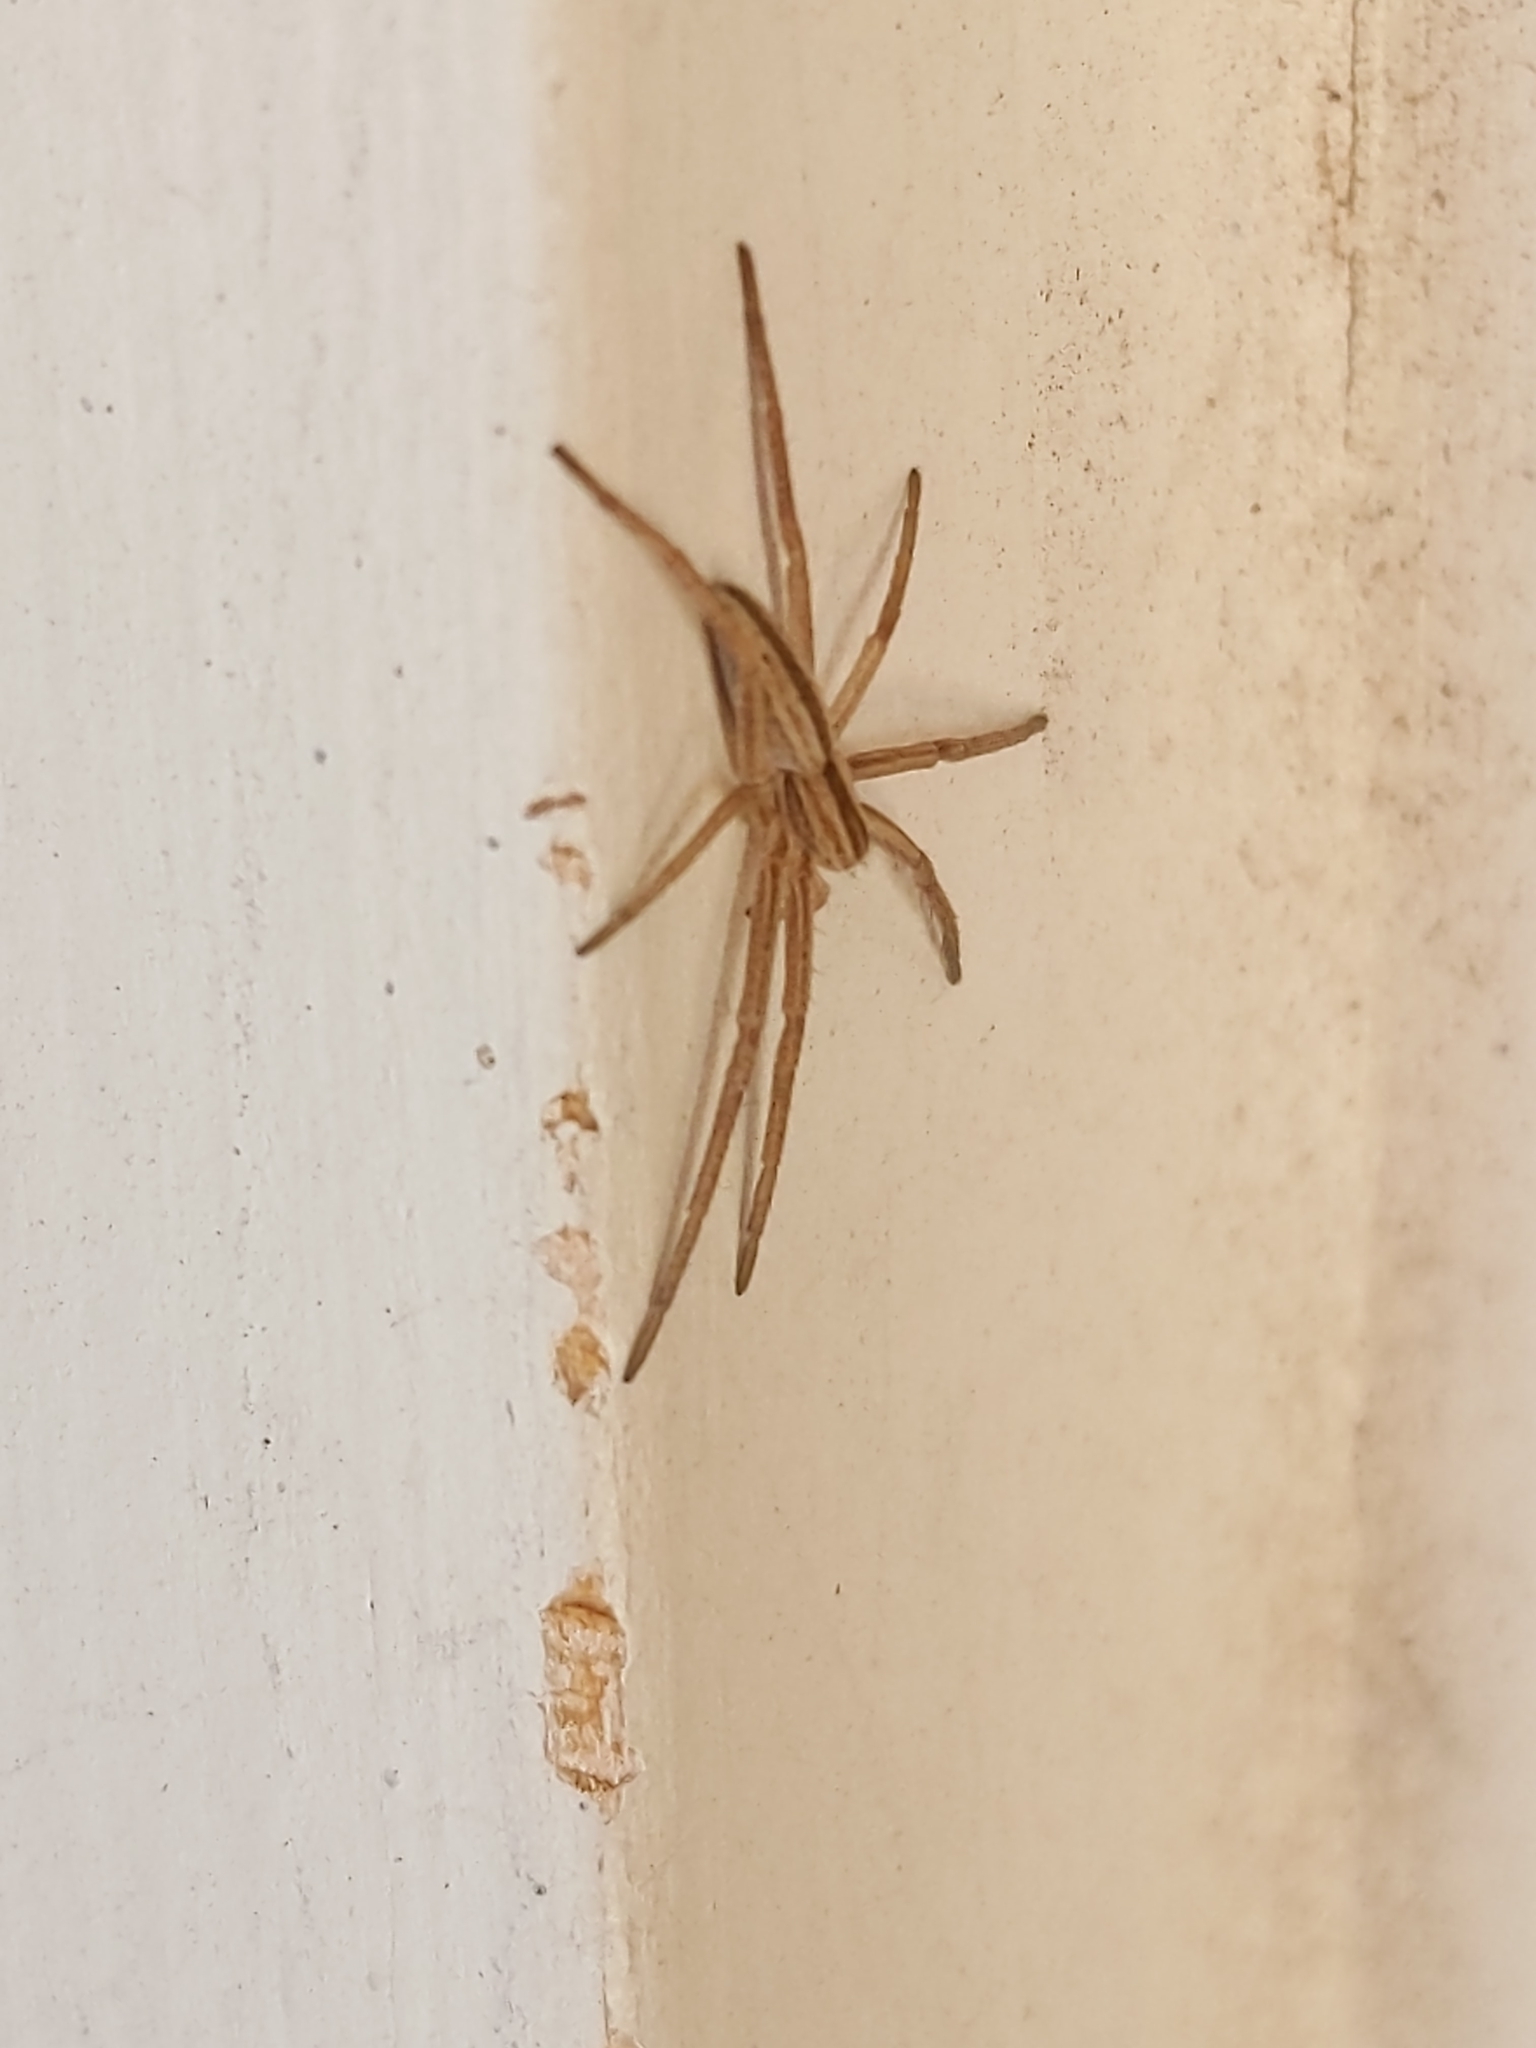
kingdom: Animalia
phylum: Arthropoda
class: Arachnida
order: Araneae
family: Philodromidae
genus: Tibellus
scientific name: Tibellus
